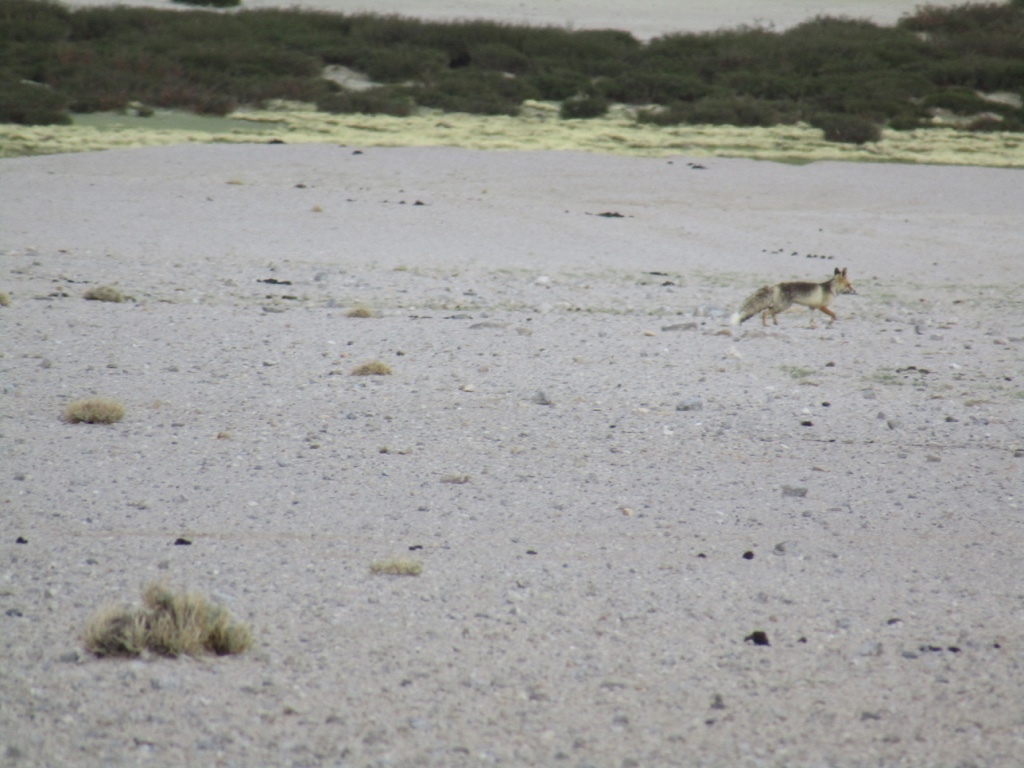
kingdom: Animalia
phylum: Chordata
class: Mammalia
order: Carnivora
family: Canidae
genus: Vulpes
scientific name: Vulpes vulpes
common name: Red fox
